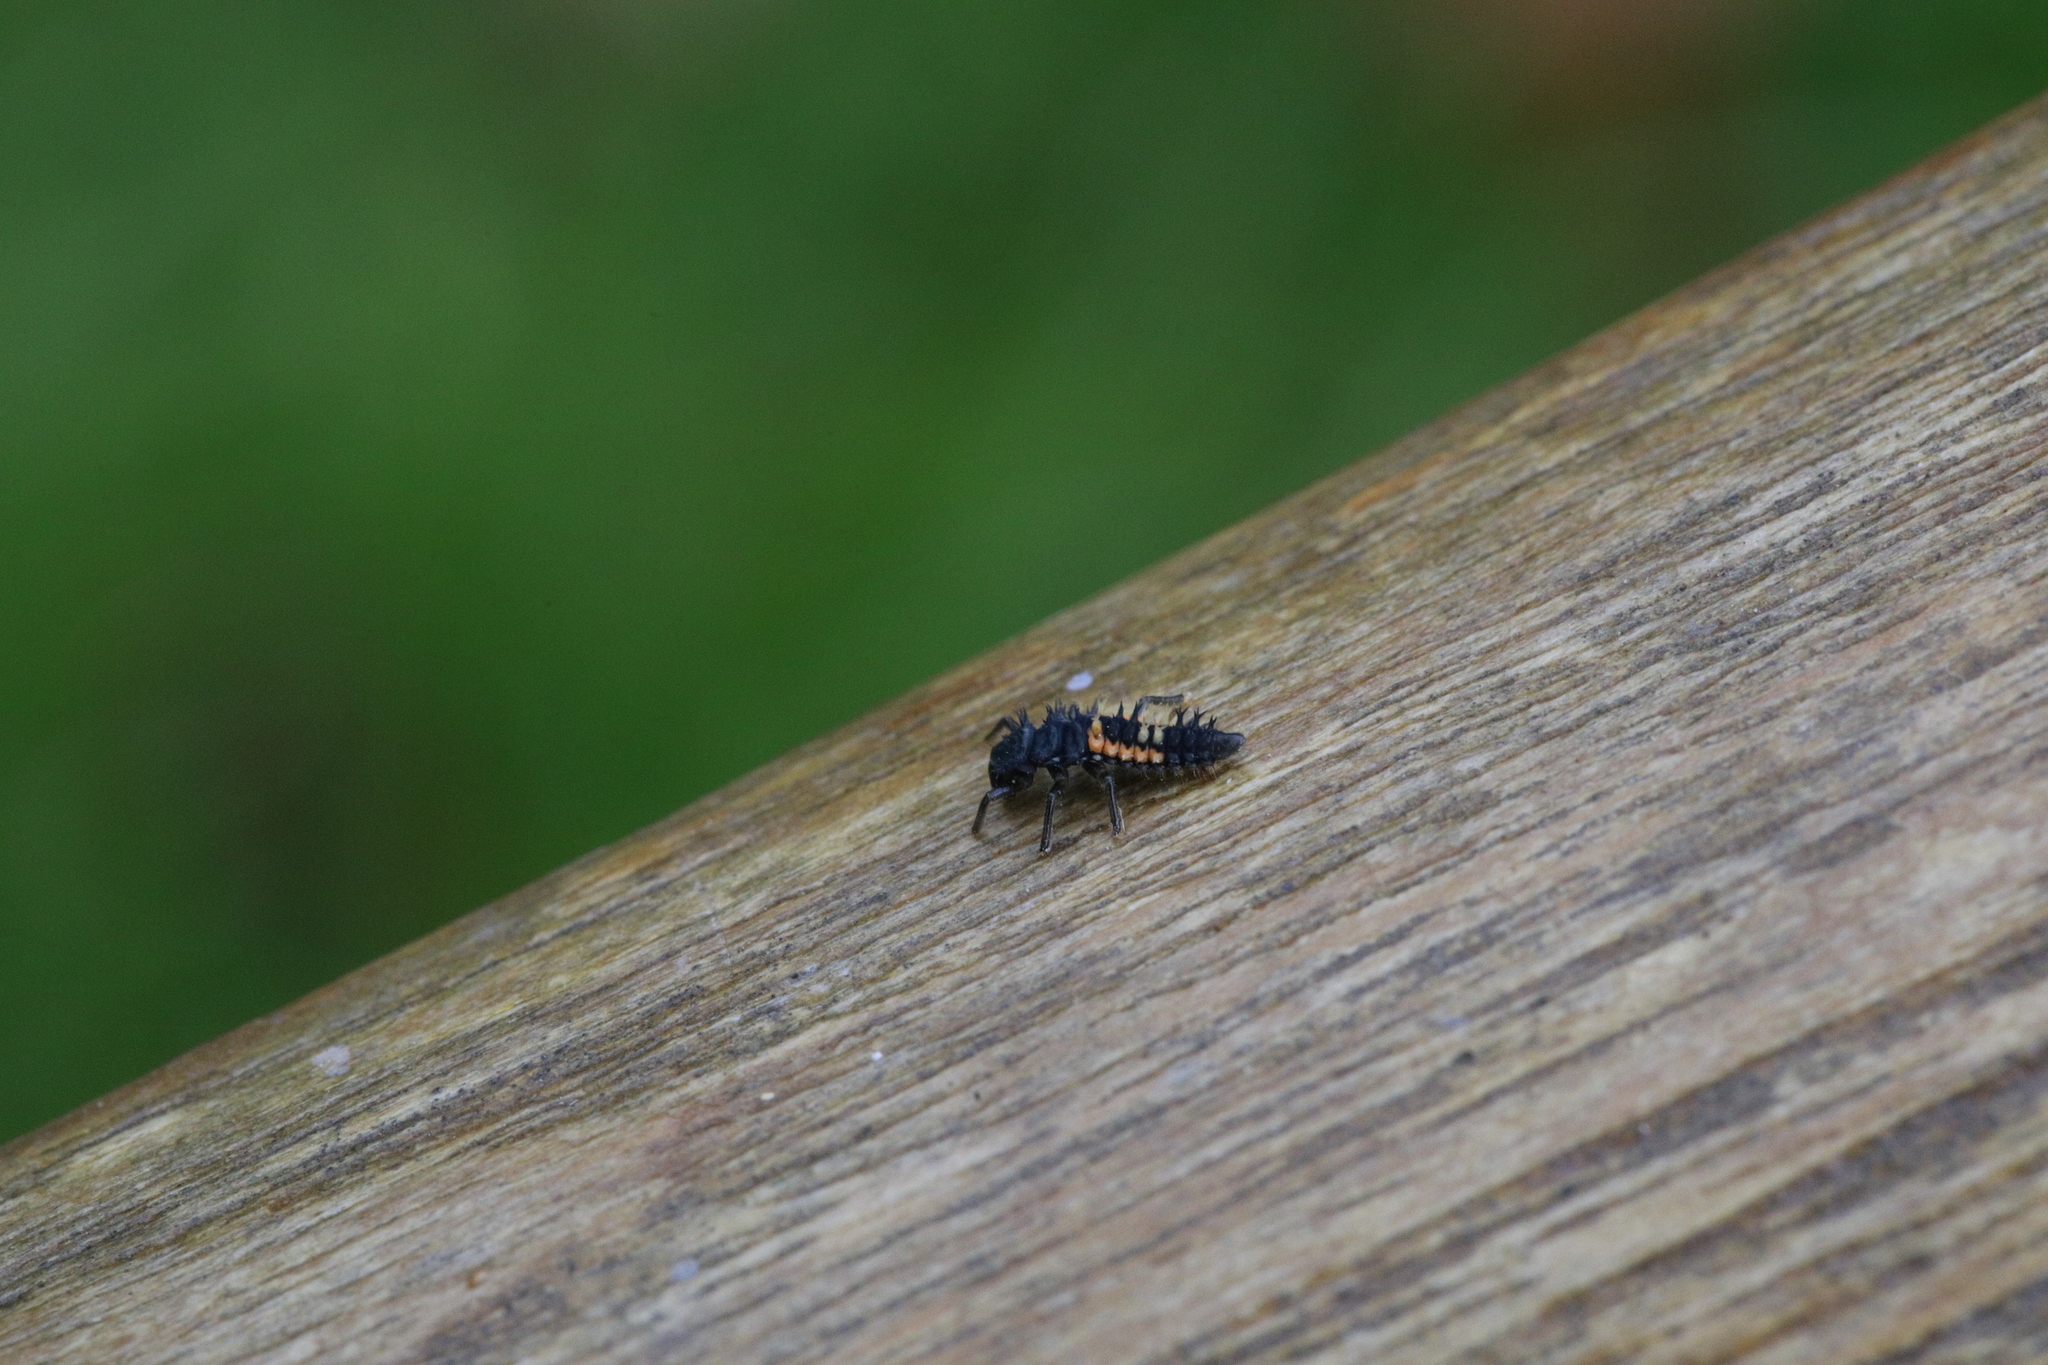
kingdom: Animalia
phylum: Arthropoda
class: Insecta
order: Coleoptera
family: Coccinellidae
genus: Harmonia
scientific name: Harmonia axyridis
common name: Harlequin ladybird
